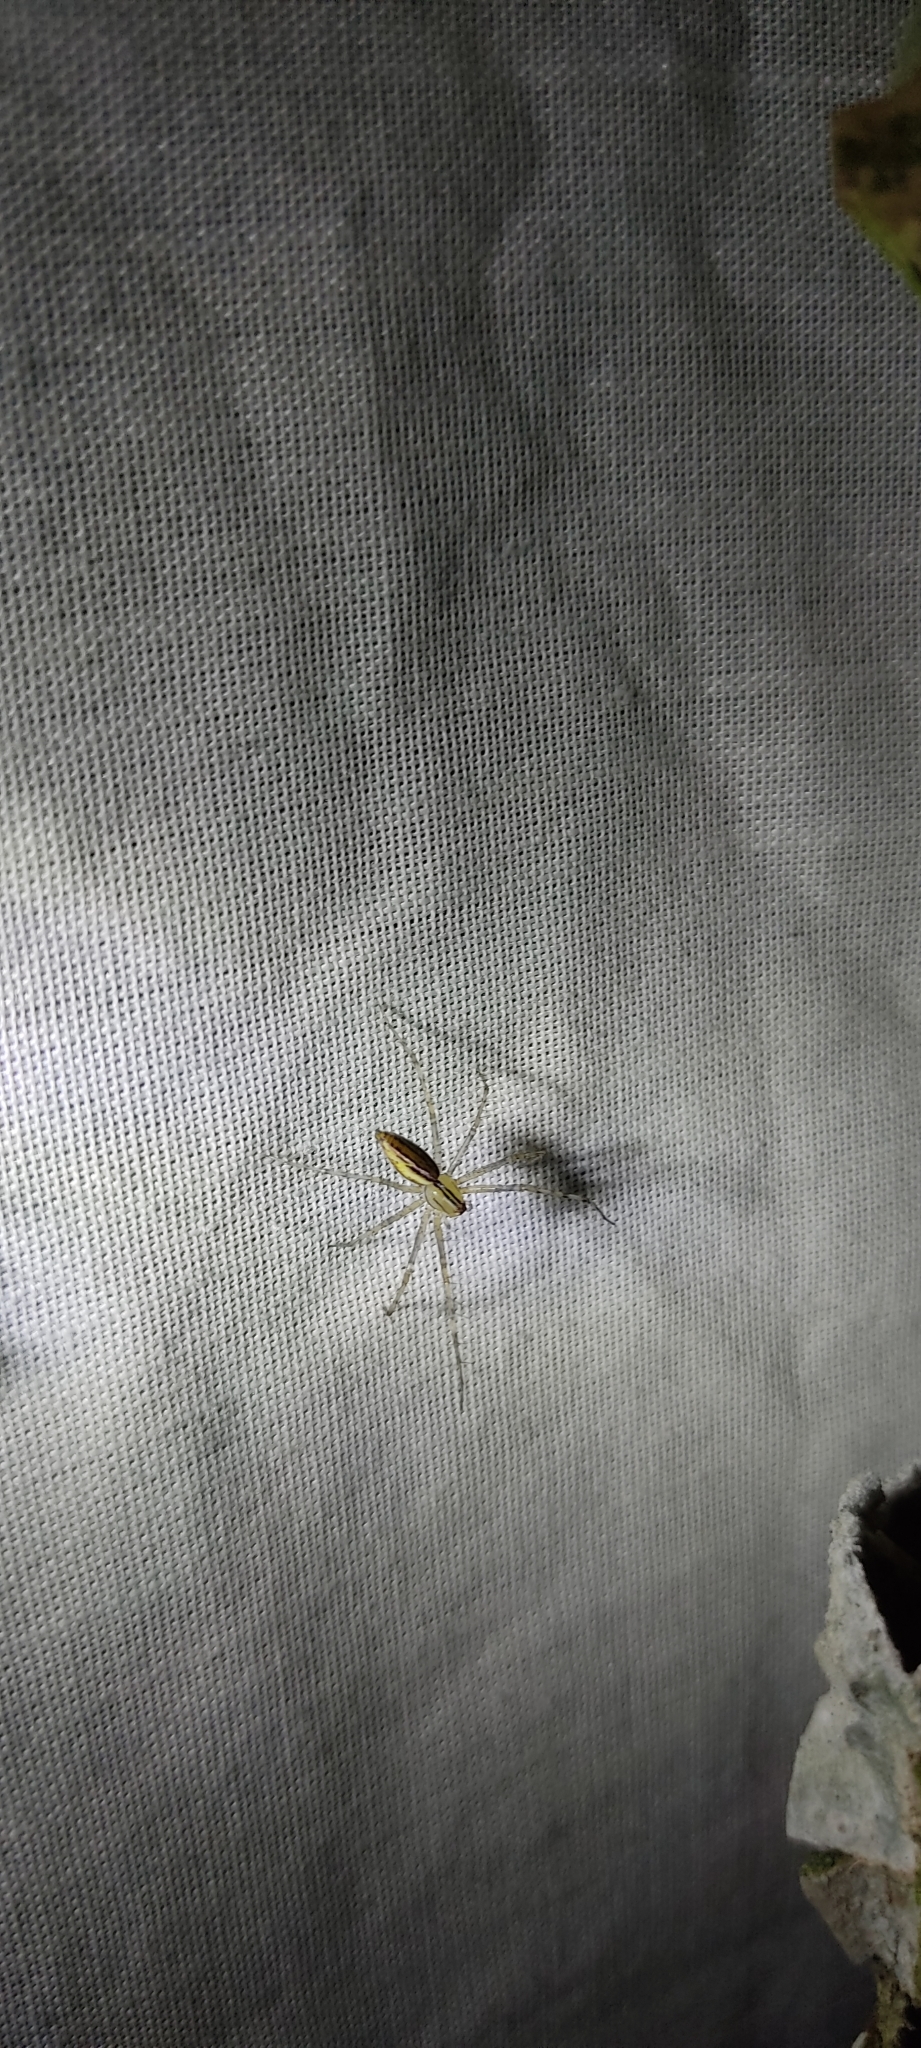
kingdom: Animalia
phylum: Arthropoda
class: Arachnida
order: Araneae
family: Oxyopidae
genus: Peucetia
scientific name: Peucetia rubrolineata
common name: Lynx spiders
